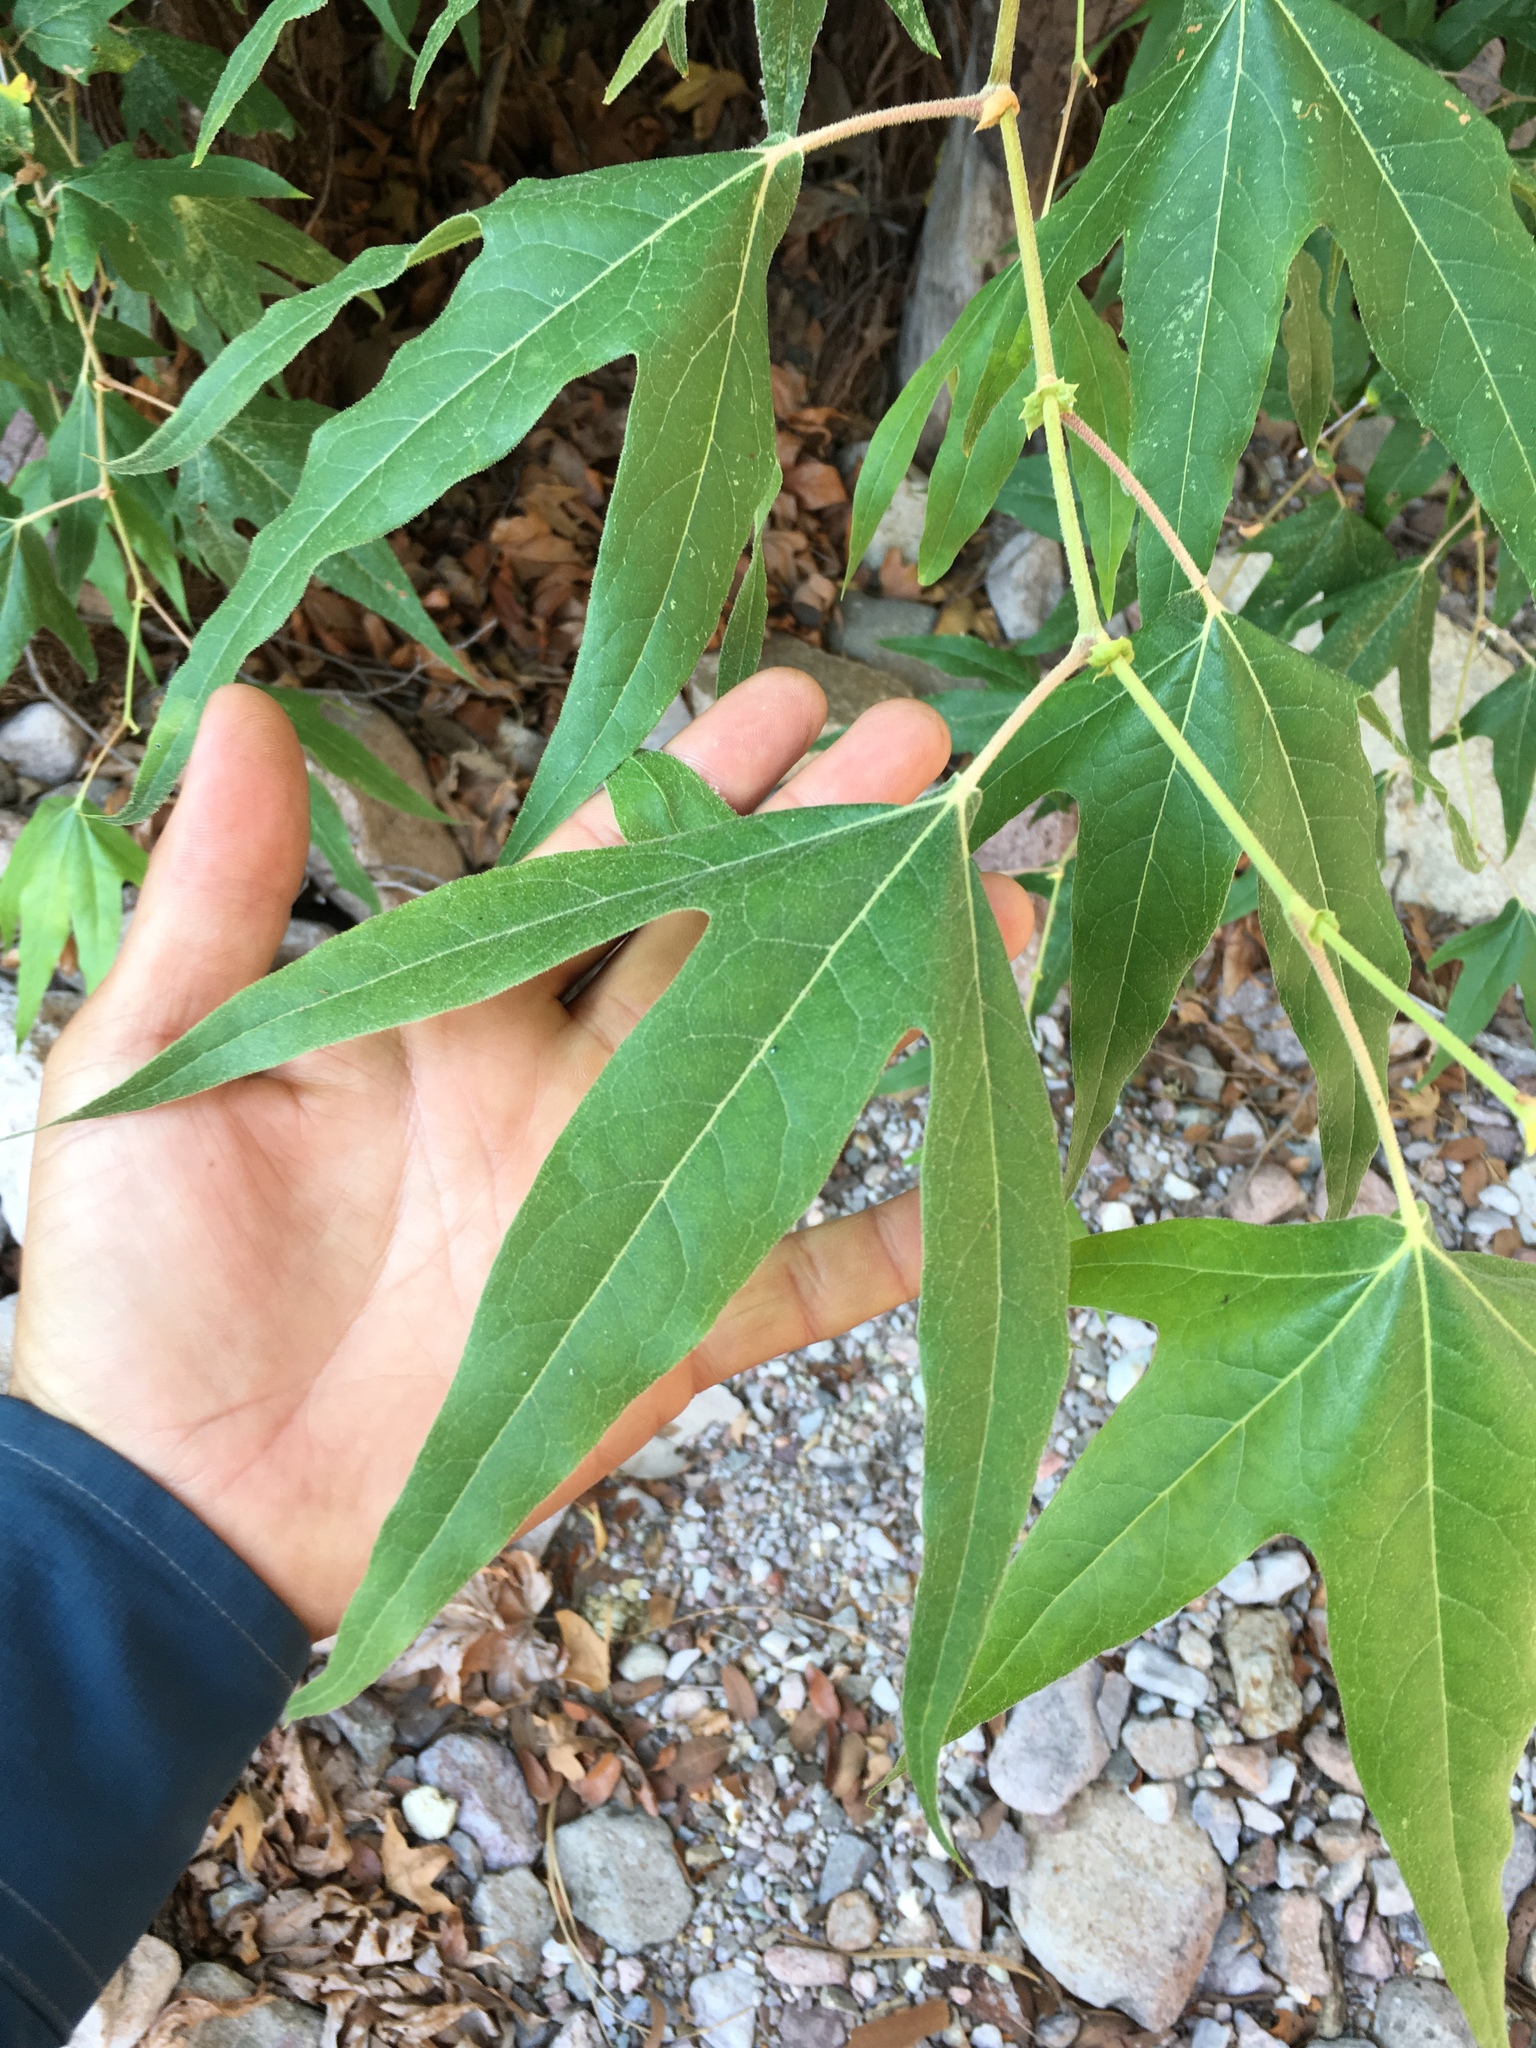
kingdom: Plantae
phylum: Tracheophyta
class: Magnoliopsida
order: Proteales
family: Platanaceae
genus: Platanus
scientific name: Platanus wrightii
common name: Arizona sycamore
